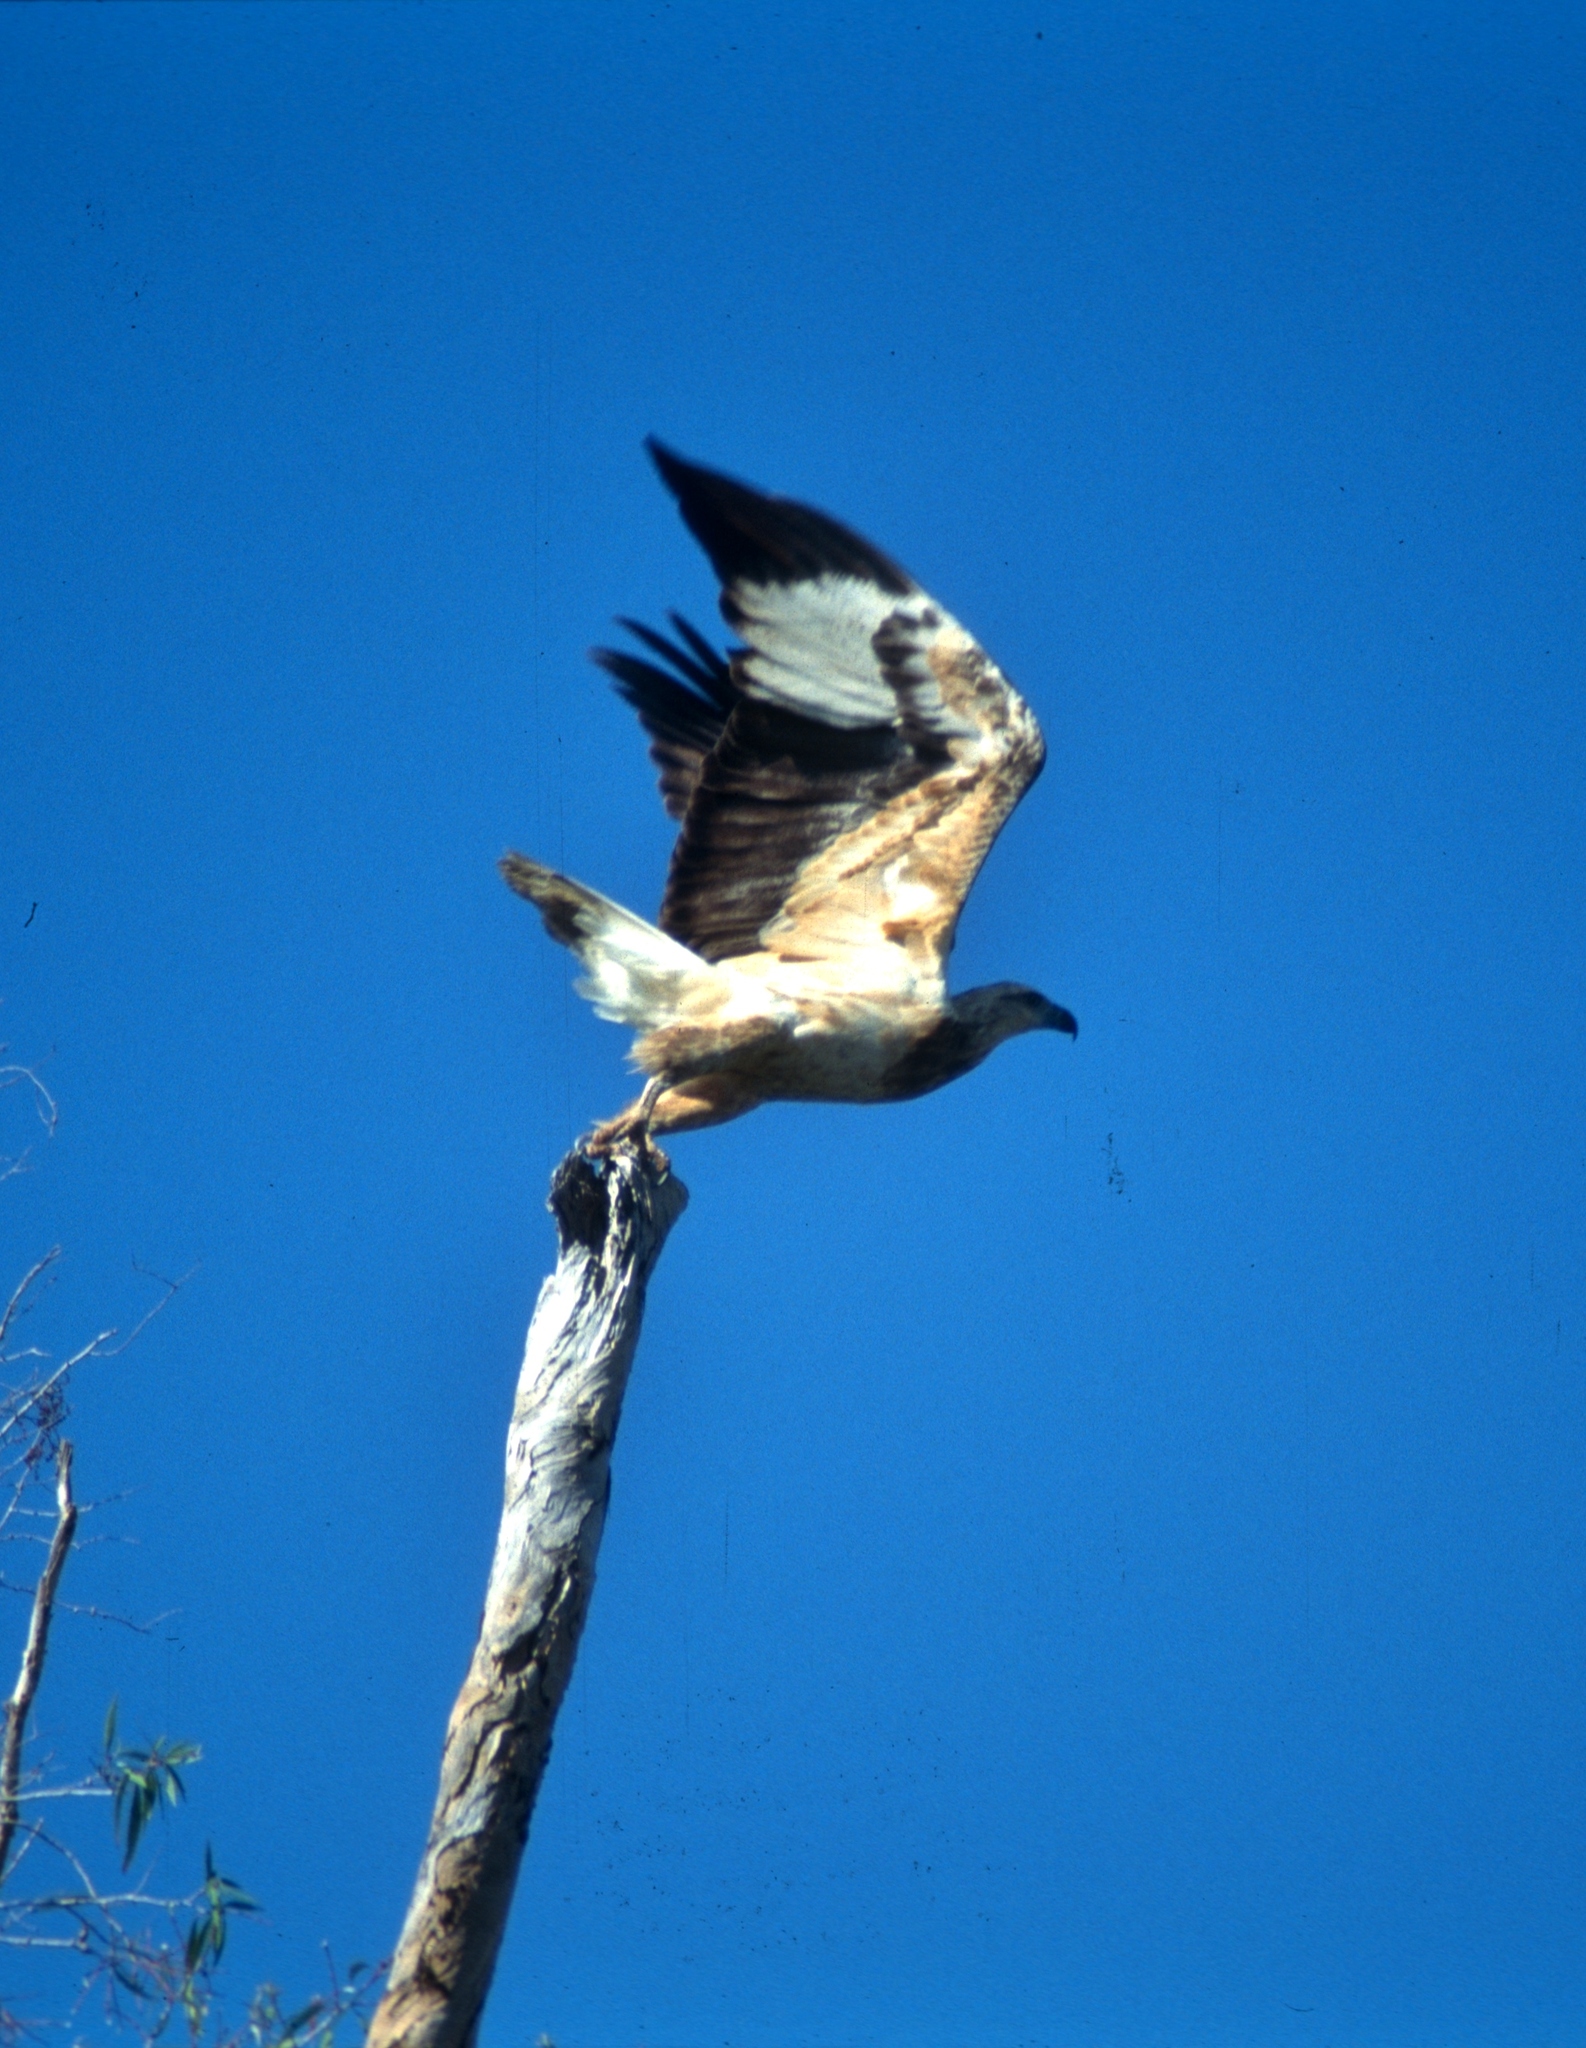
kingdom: Animalia
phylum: Chordata
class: Aves
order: Accipitriformes
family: Accipitridae
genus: Haliaeetus
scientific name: Haliaeetus leucogaster
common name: White-bellied sea eagle
